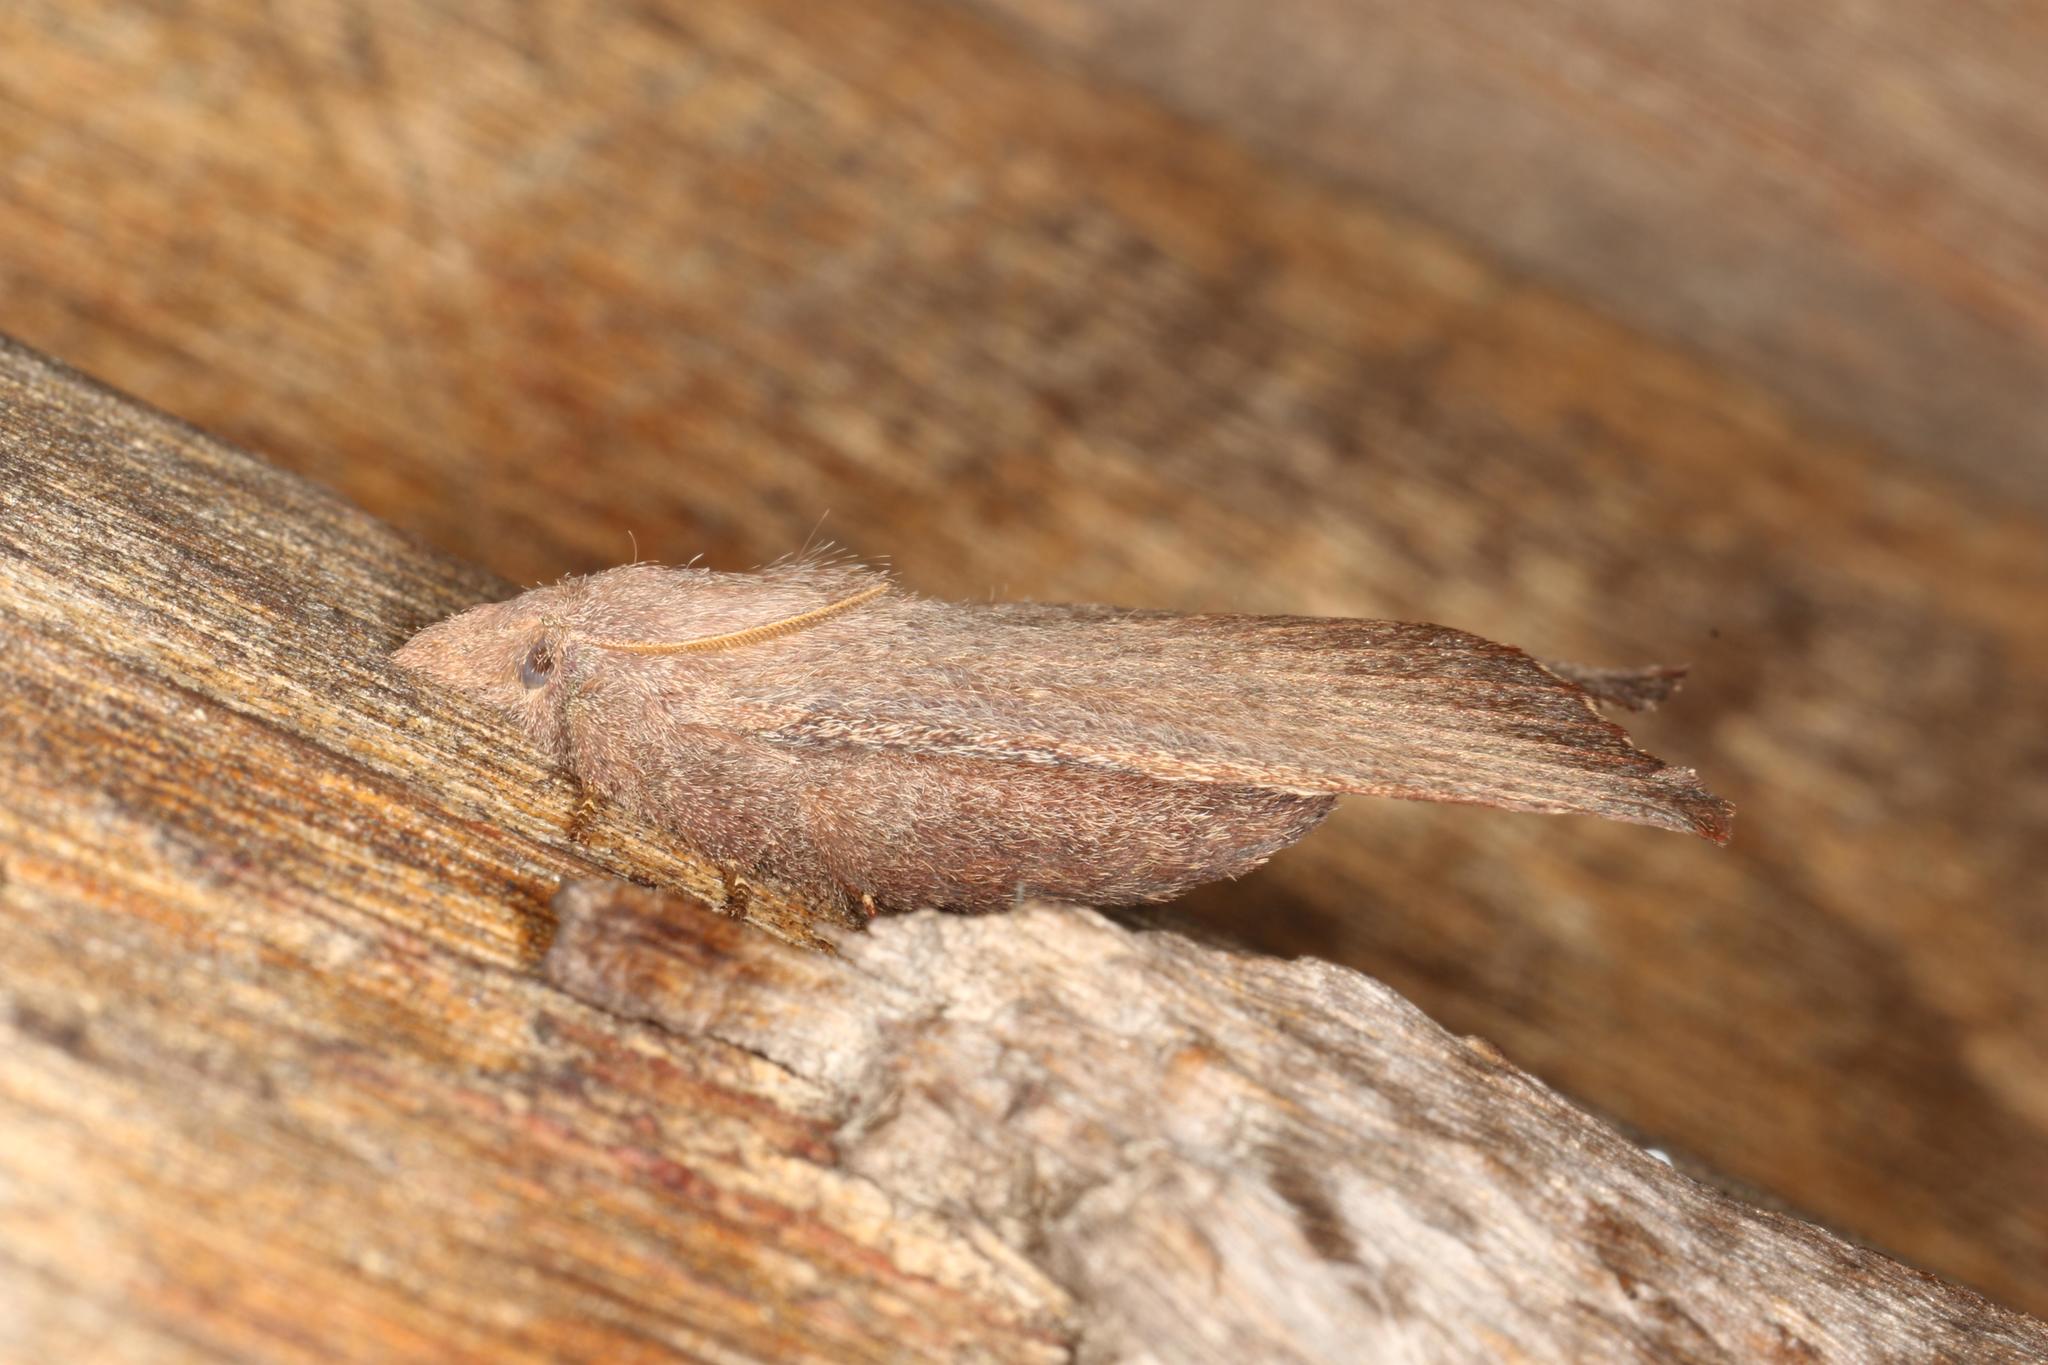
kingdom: Animalia
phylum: Arthropoda
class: Insecta
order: Lepidoptera
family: Lasiocampidae
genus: Pararguda
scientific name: Pararguda rufescens
